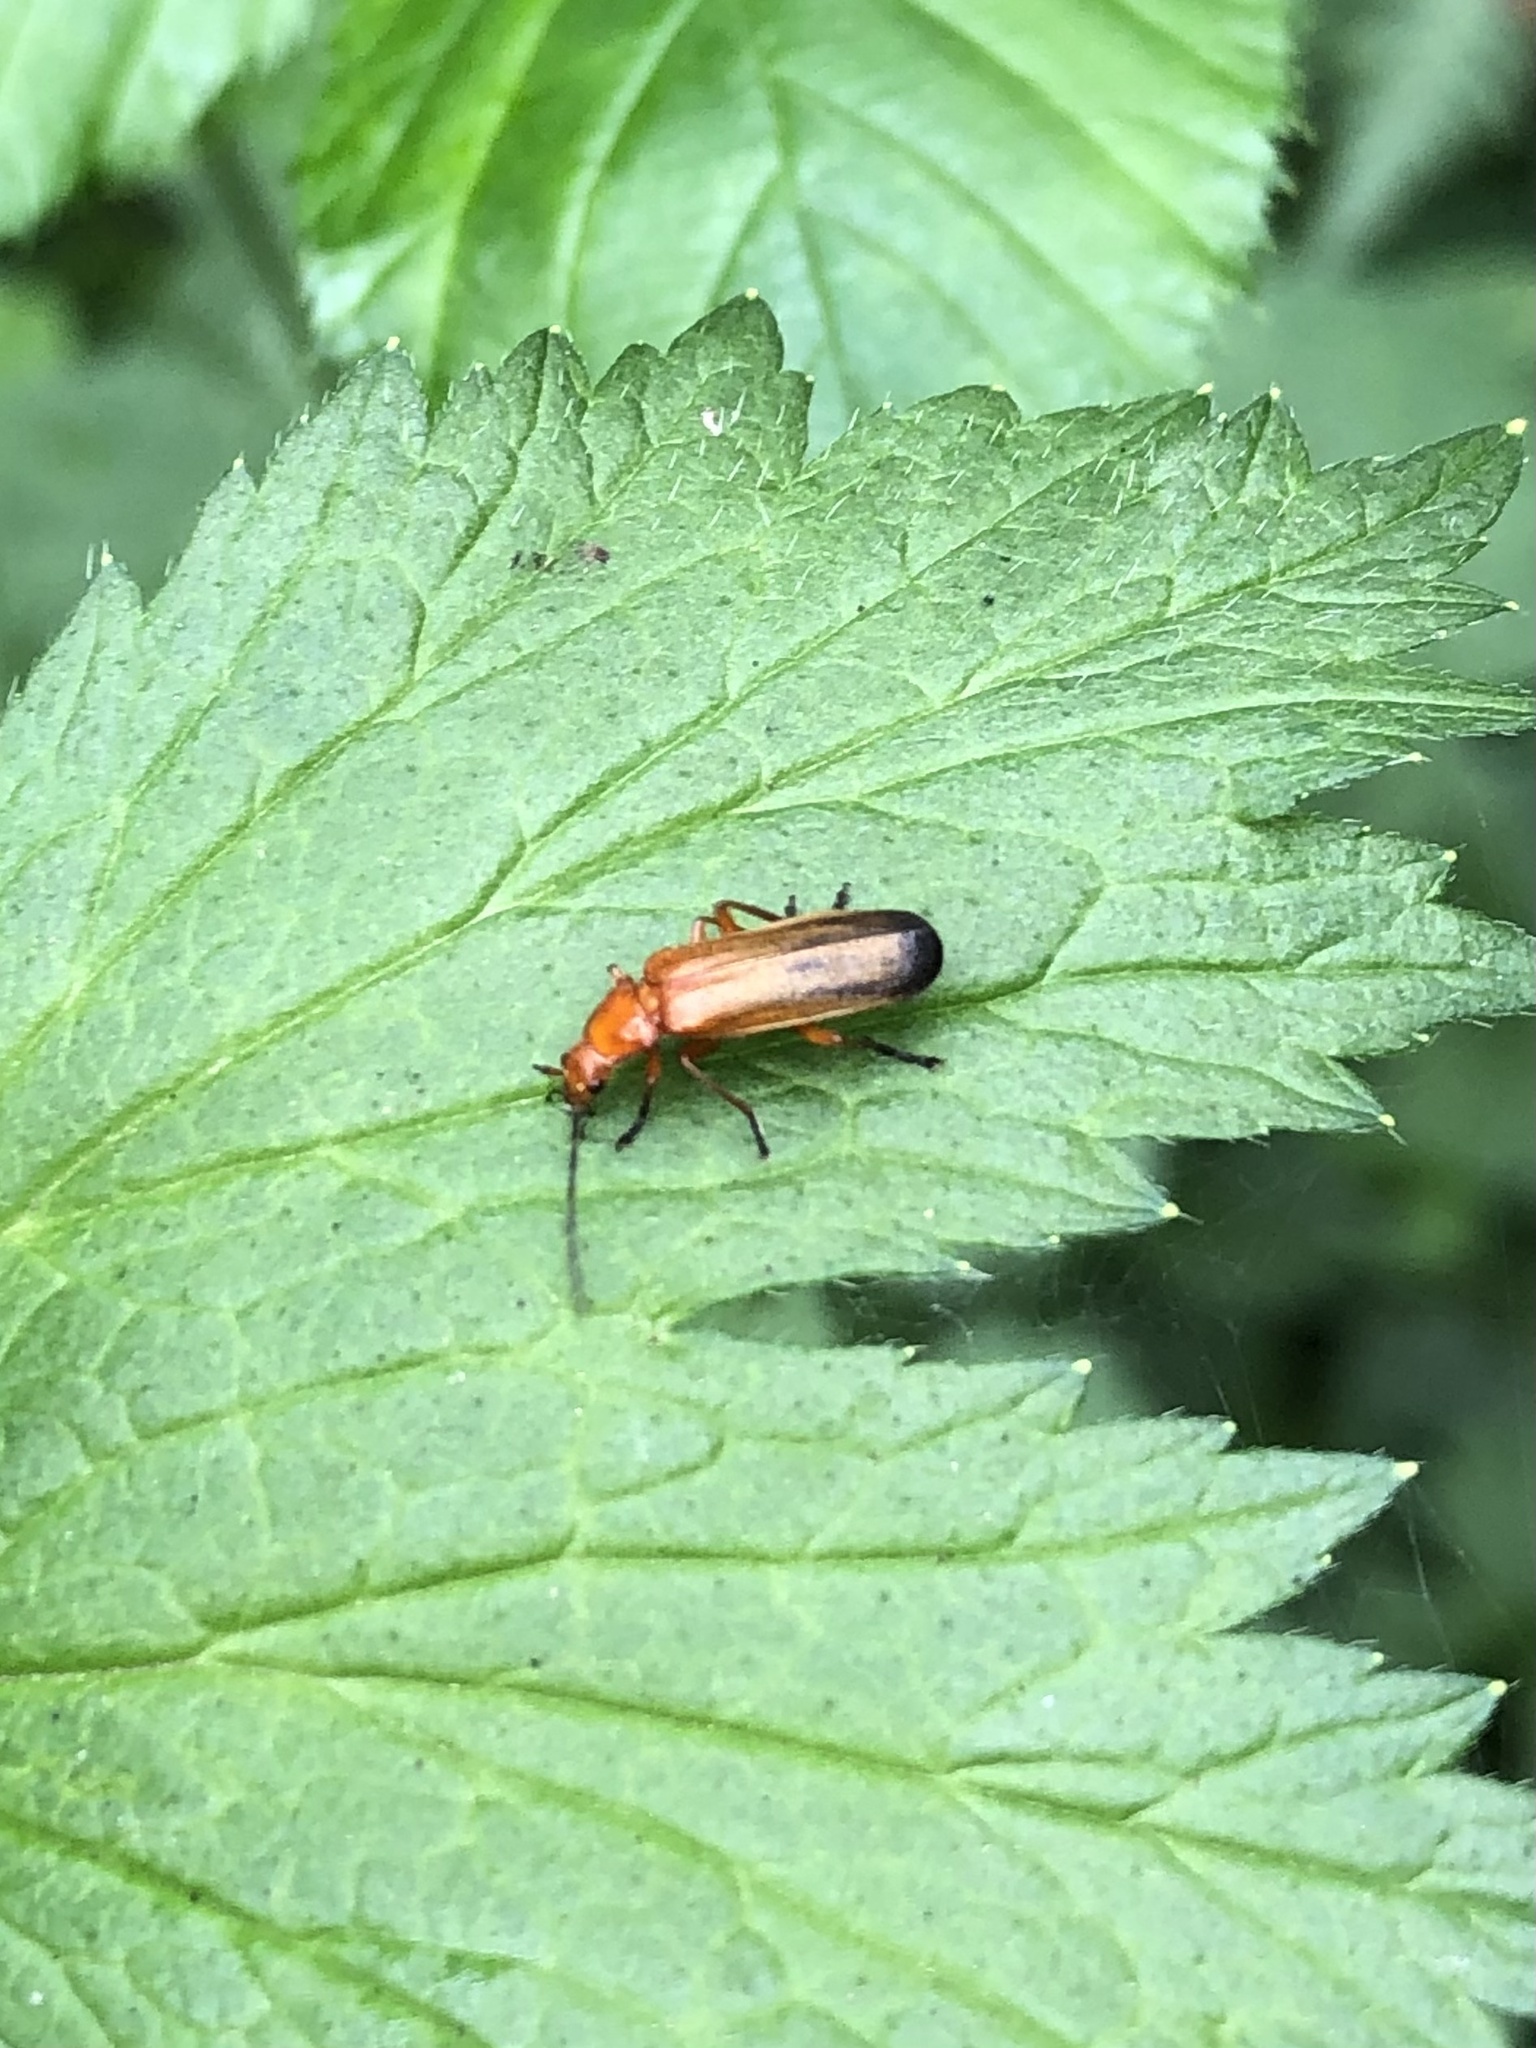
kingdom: Animalia
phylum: Arthropoda
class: Insecta
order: Coleoptera
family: Cantharidae
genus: Rhagonycha
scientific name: Rhagonycha fulva
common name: Common red soldier beetle
